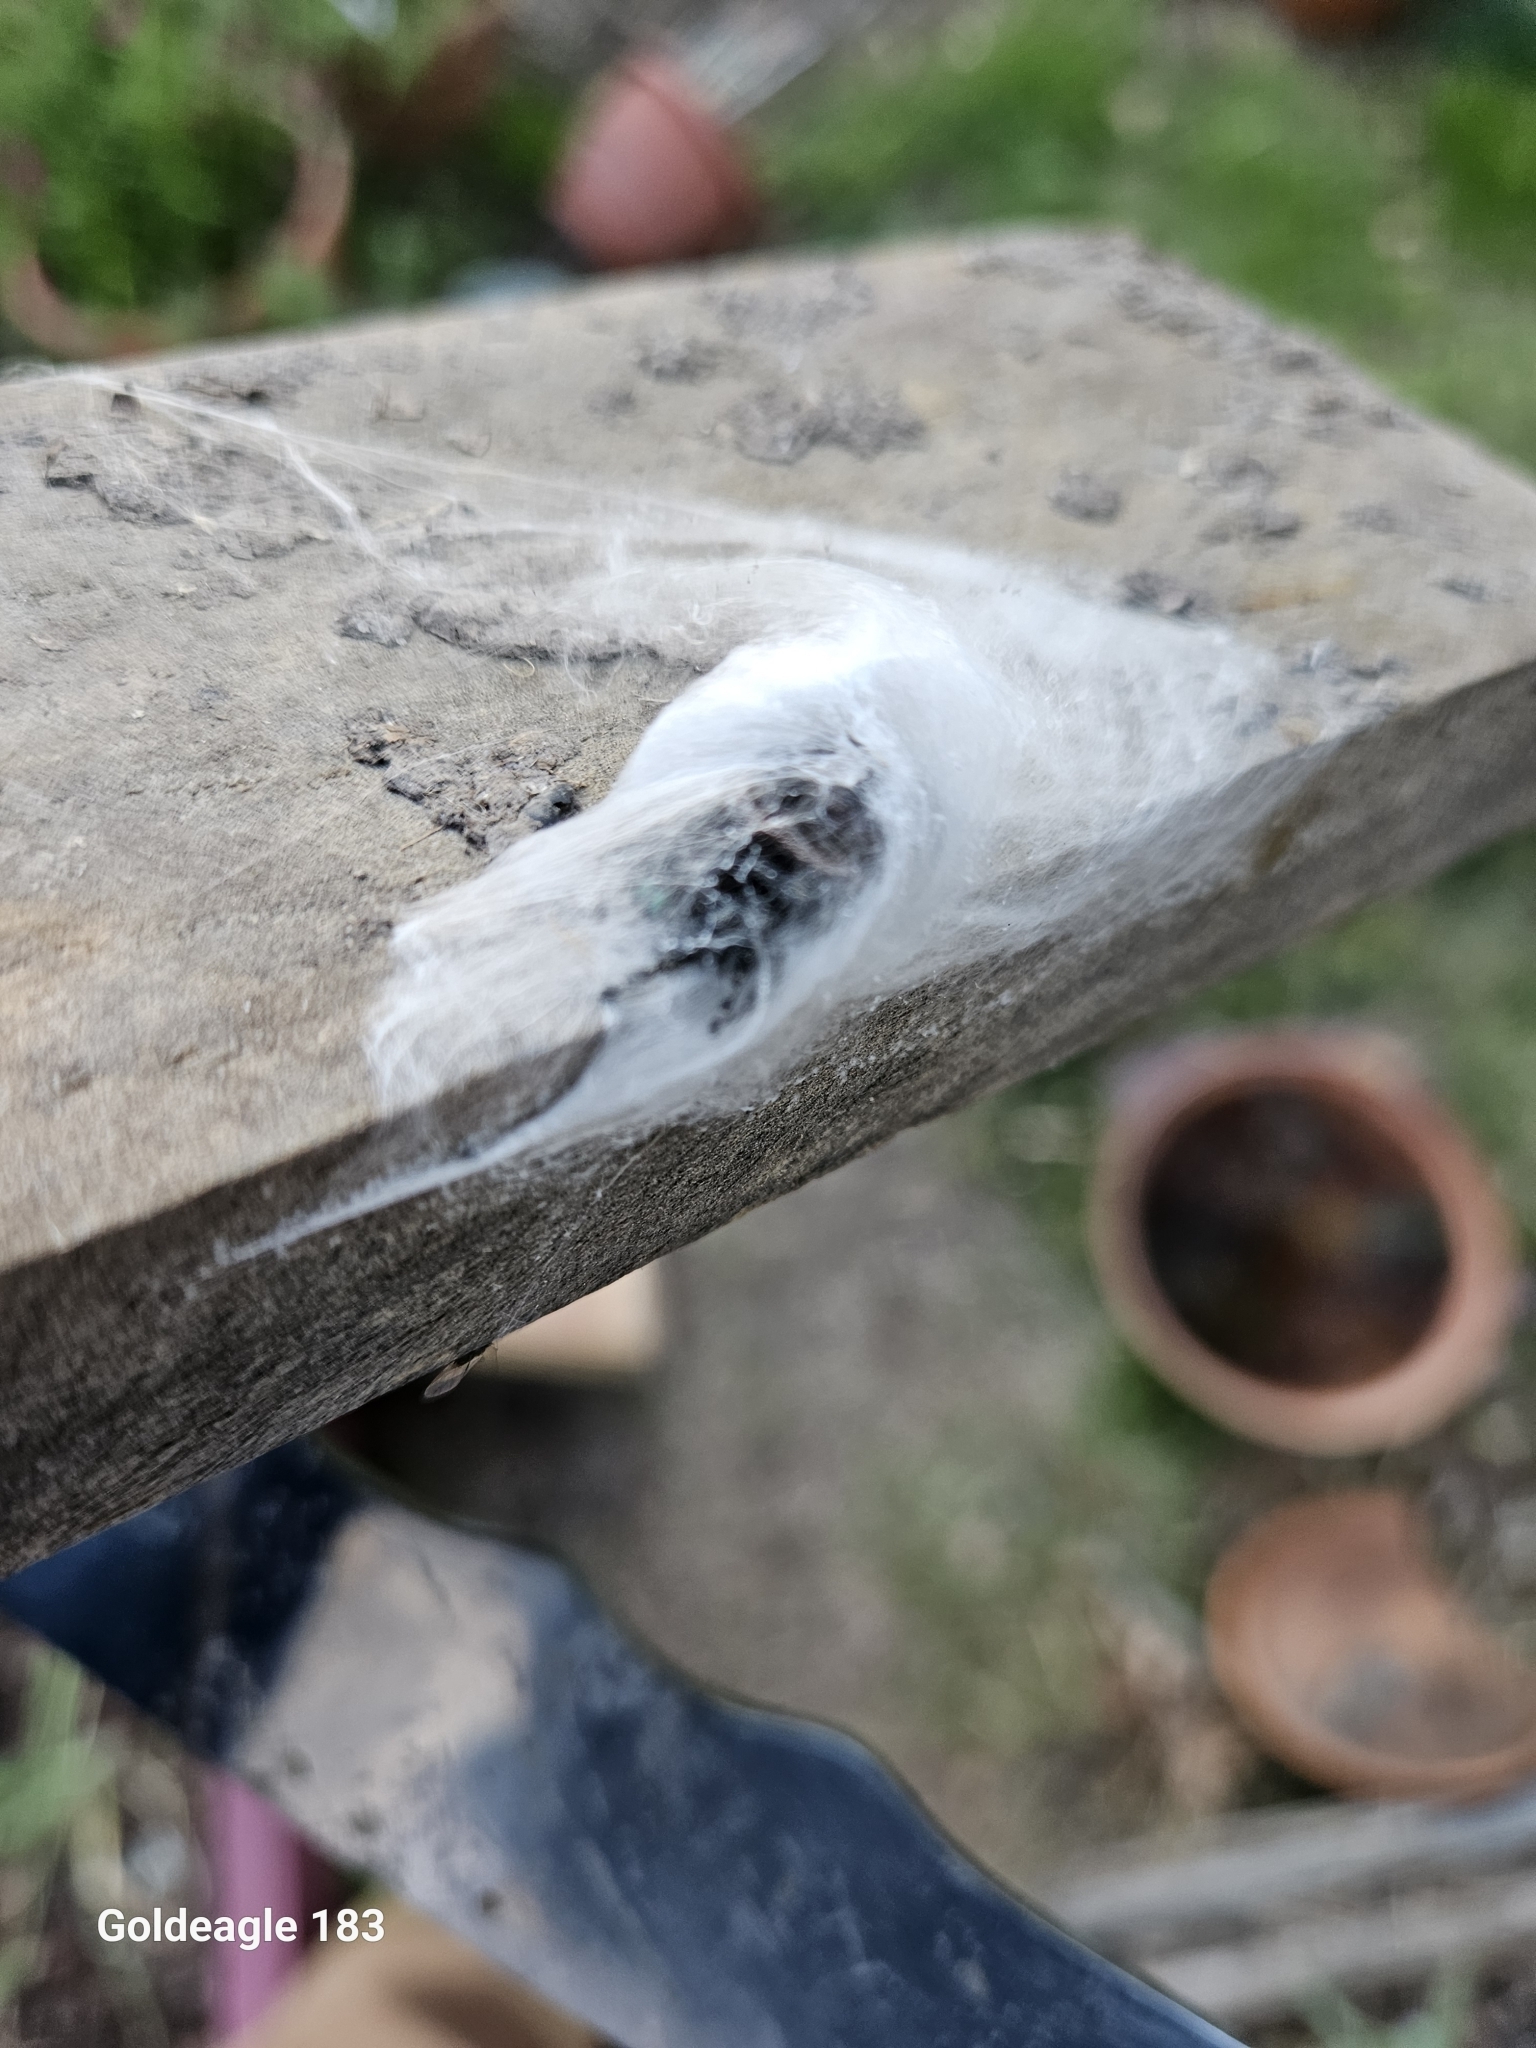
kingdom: Animalia
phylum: Arthropoda
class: Arachnida
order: Araneae
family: Salticidae
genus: Phidippus
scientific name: Phidippus audax
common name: Bold jumper
